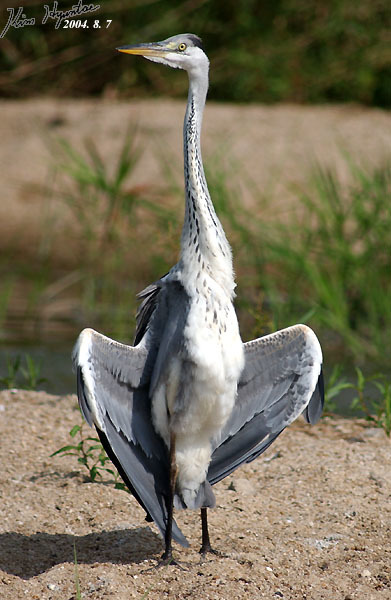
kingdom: Animalia
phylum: Chordata
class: Aves
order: Pelecaniformes
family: Ardeidae
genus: Ardea
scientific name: Ardea cinerea
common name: Grey heron
